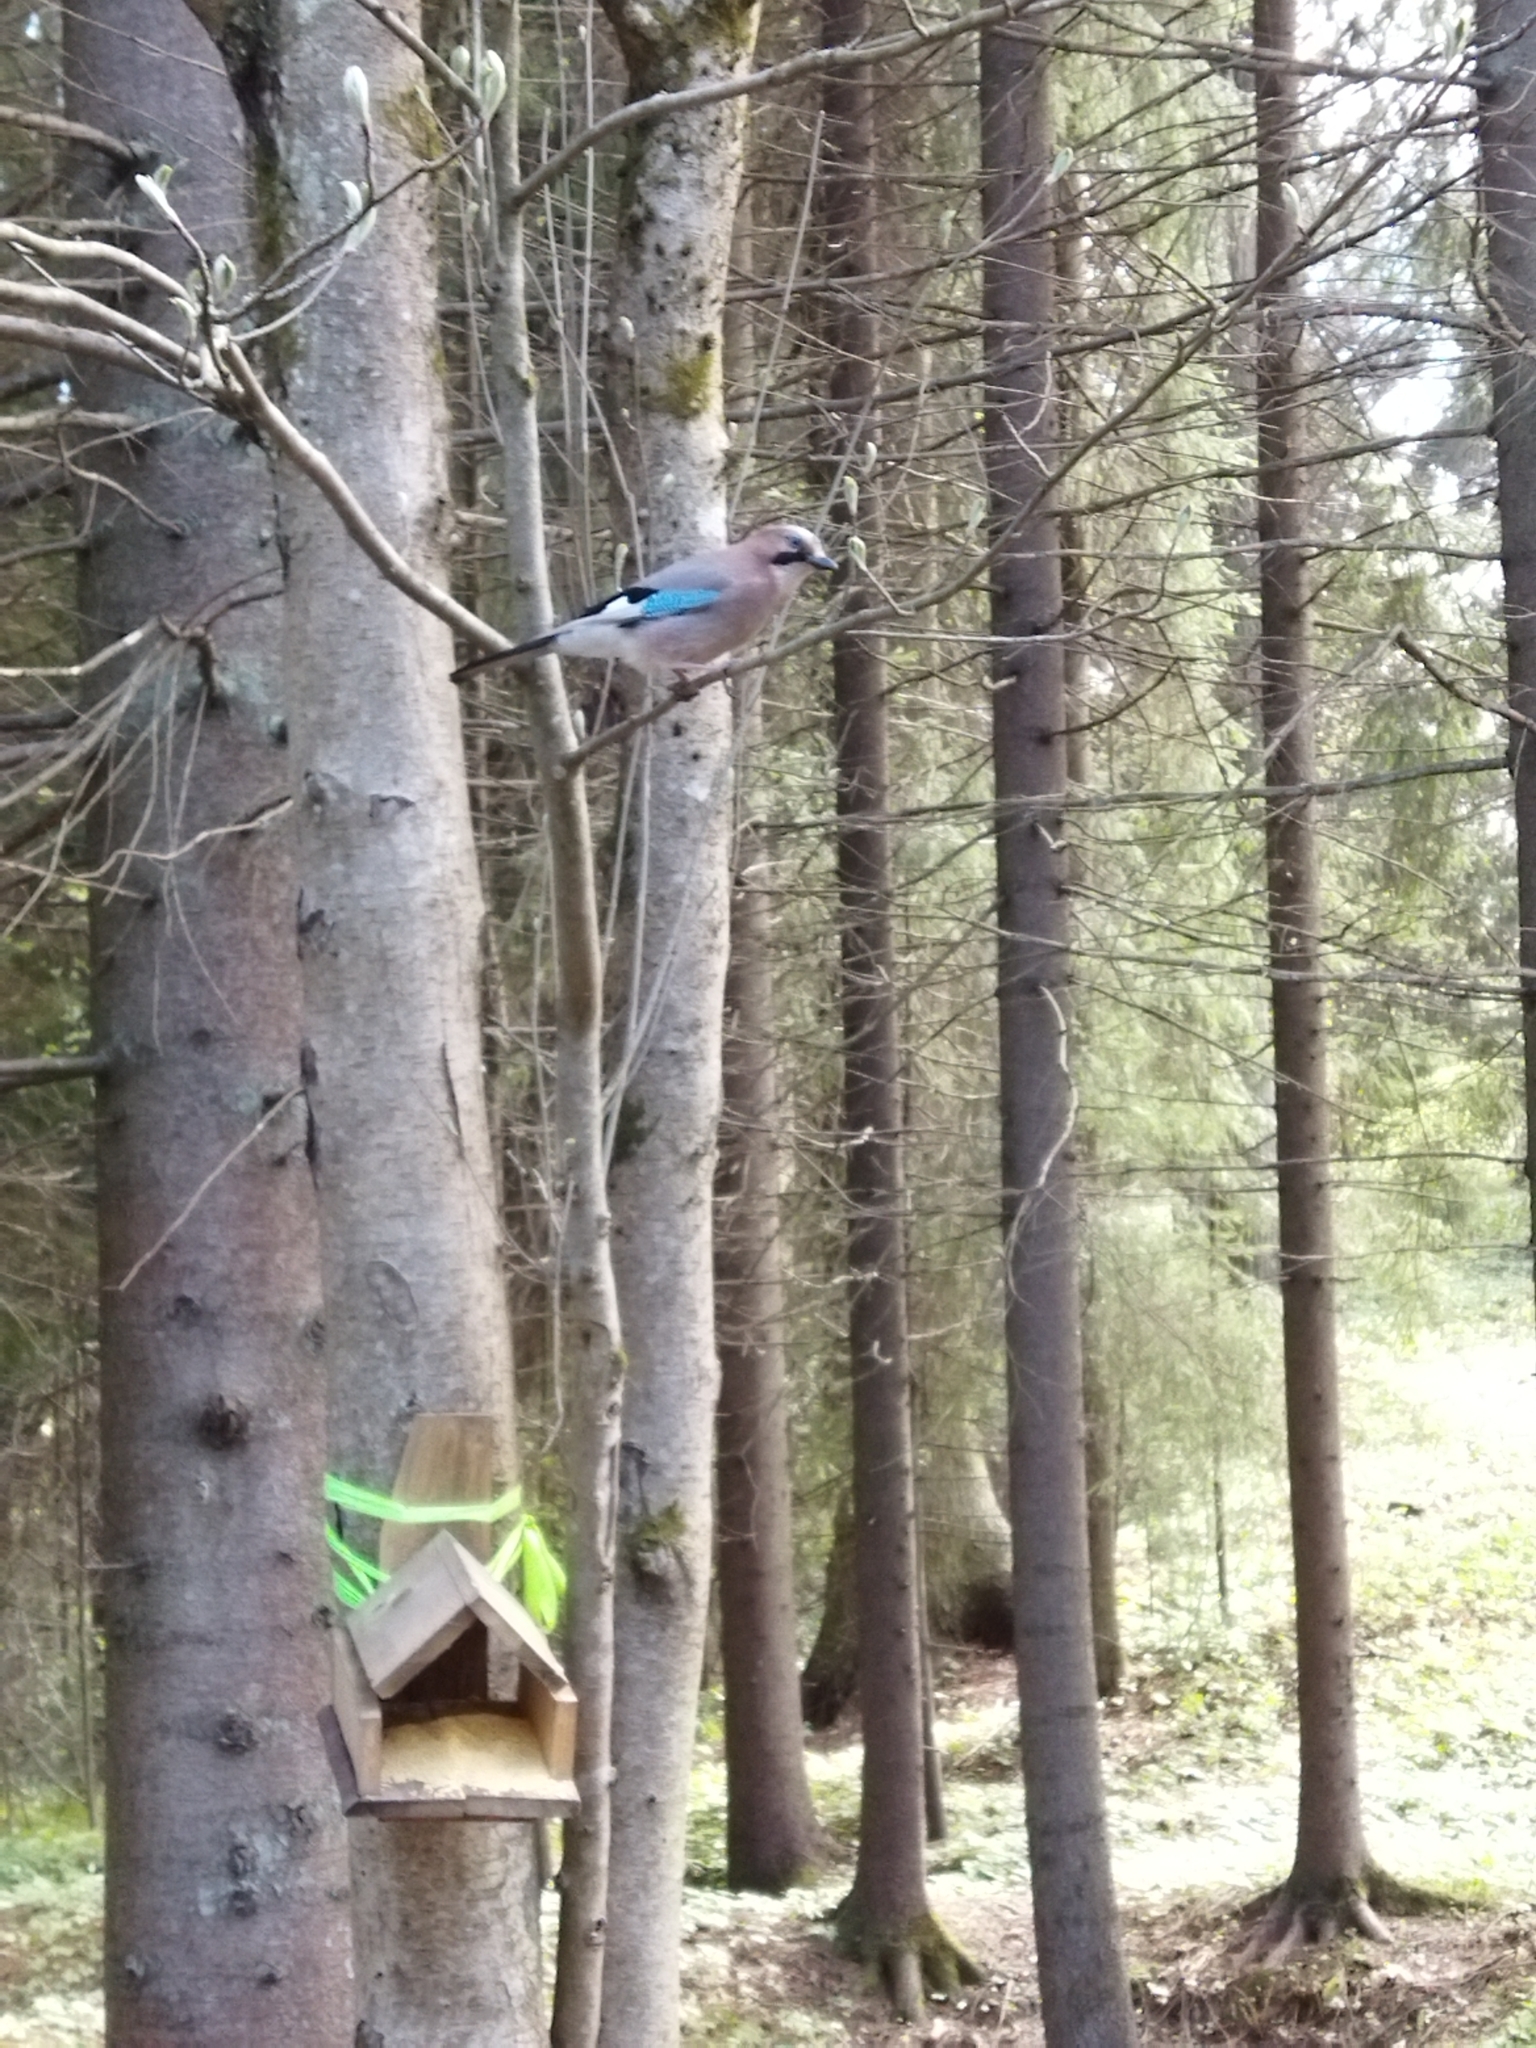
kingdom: Animalia
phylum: Chordata
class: Aves
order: Passeriformes
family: Corvidae
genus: Garrulus
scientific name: Garrulus glandarius
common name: Eurasian jay
